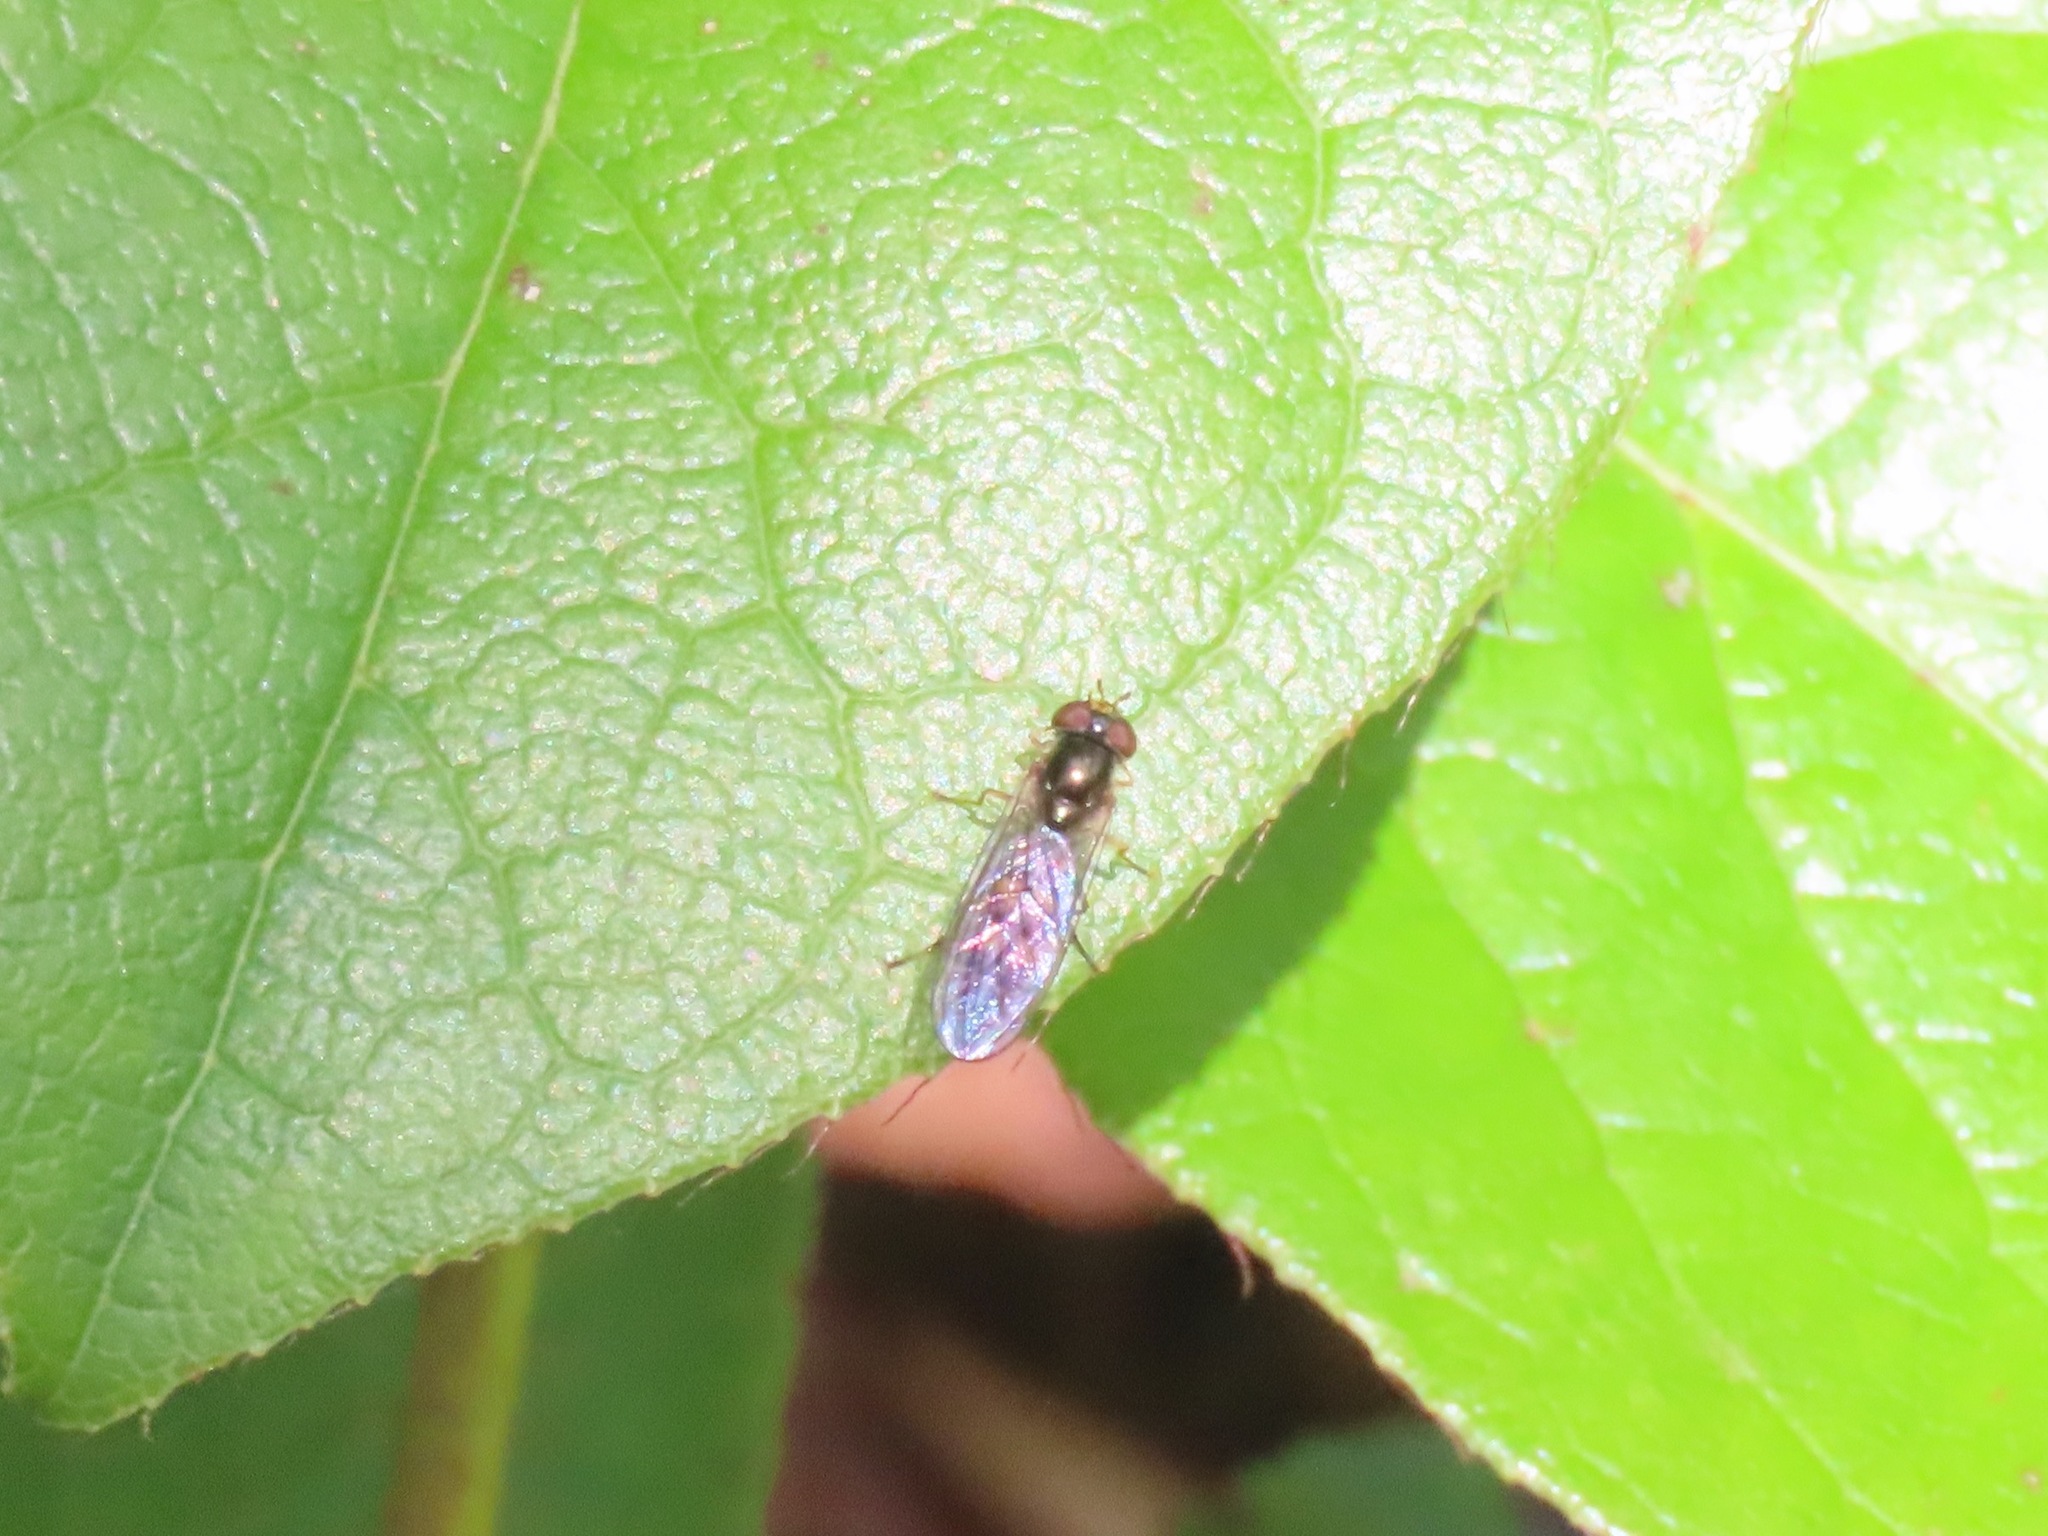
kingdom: Animalia
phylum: Arthropoda
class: Insecta
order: Diptera
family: Syrphidae
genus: Melanostoma
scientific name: Melanostoma mellina
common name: Hover fly
